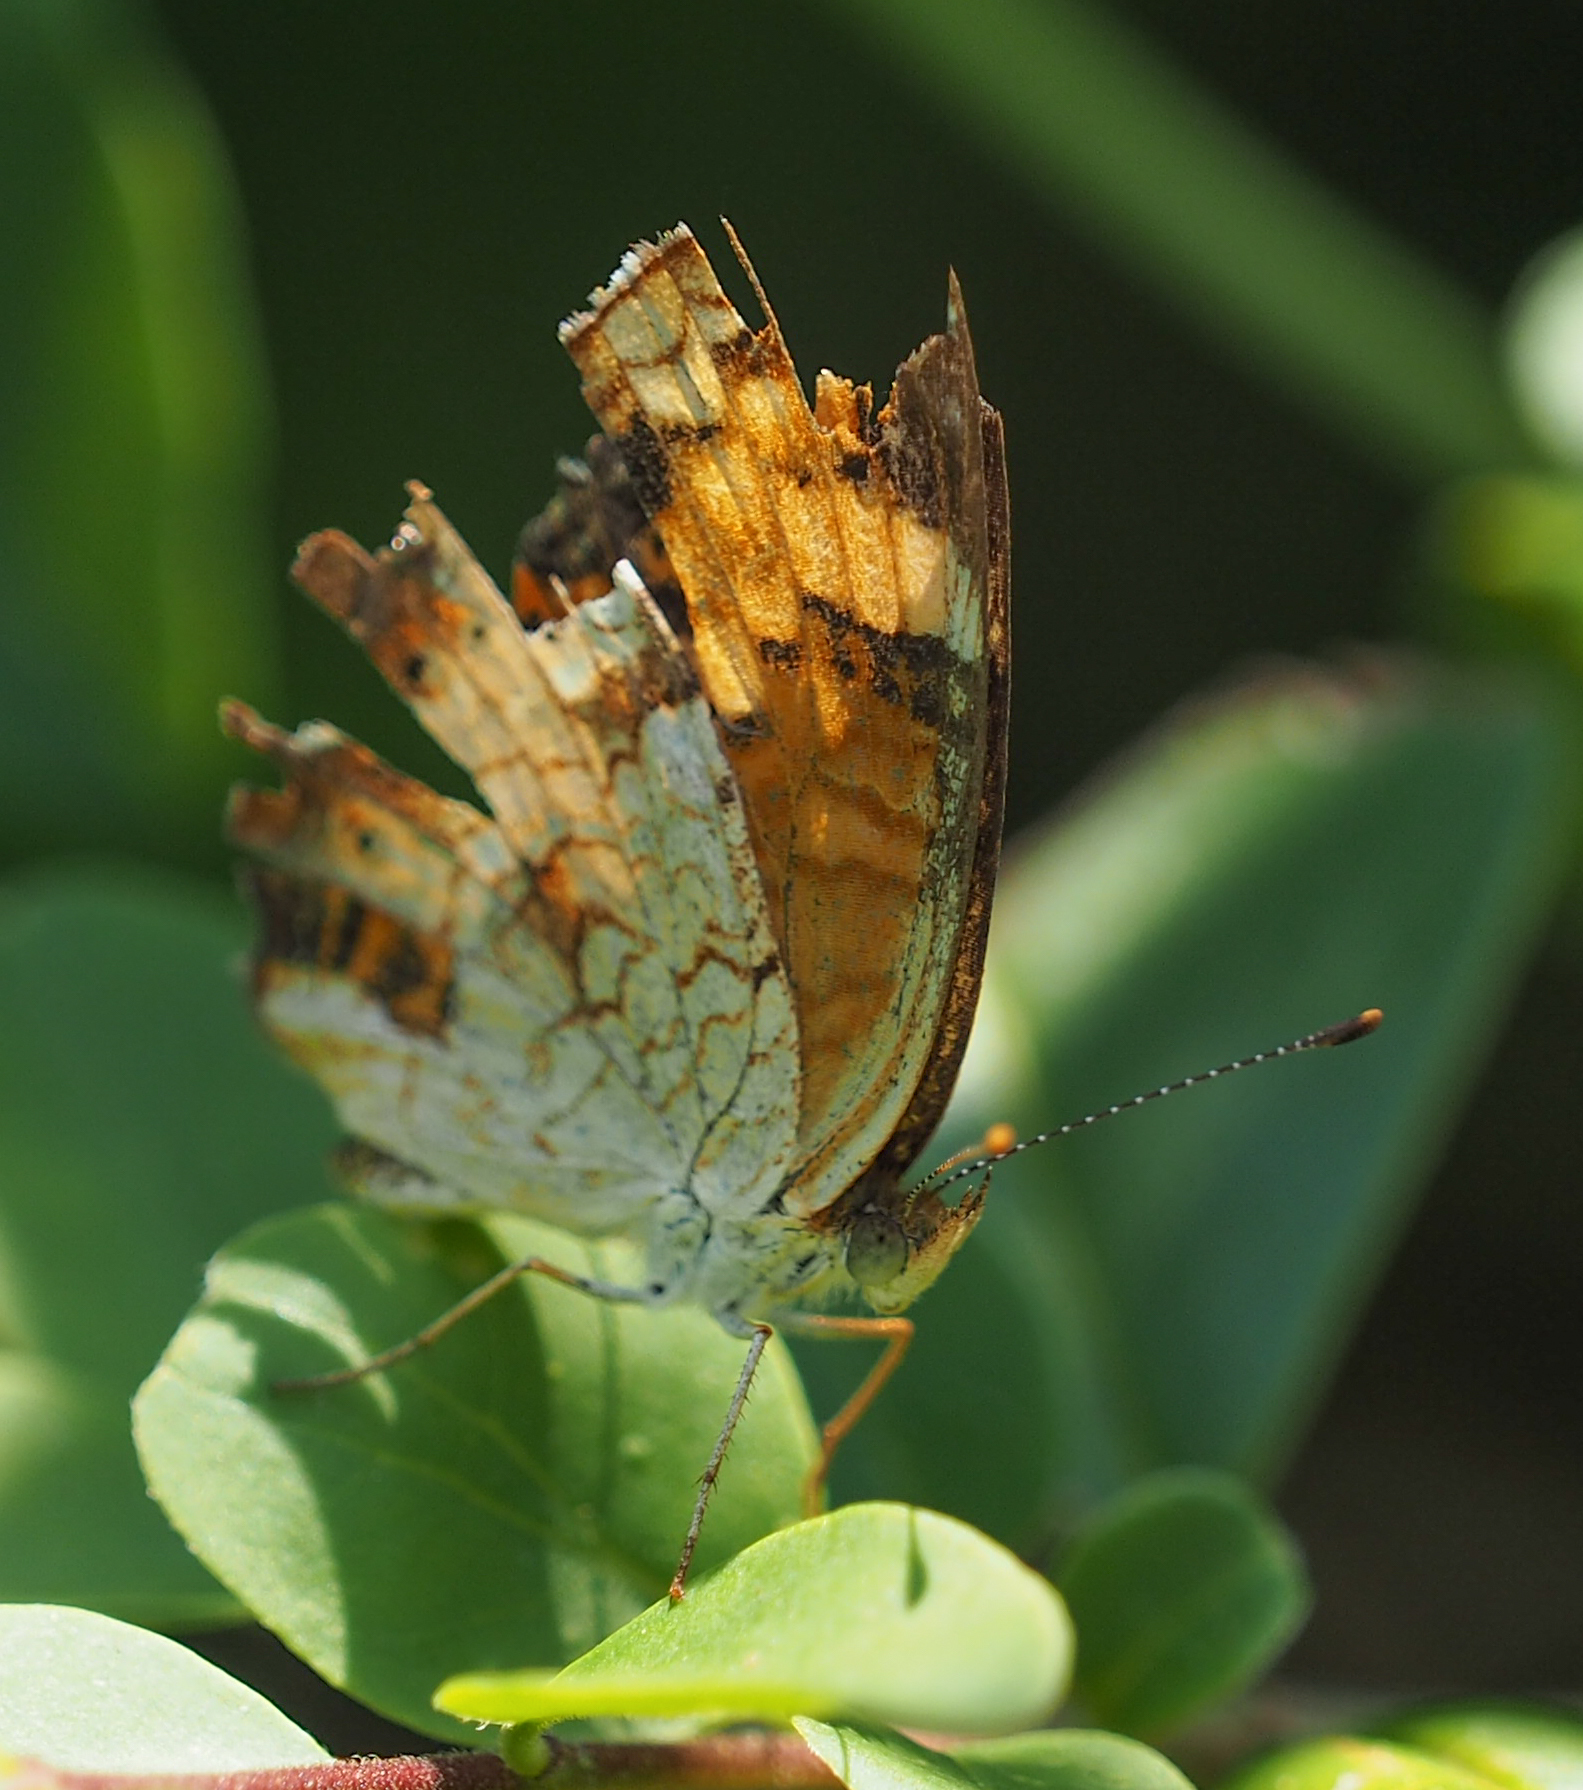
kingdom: Animalia
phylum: Arthropoda
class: Insecta
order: Lepidoptera
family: Nymphalidae
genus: Phyciodes
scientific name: Phyciodes tharos
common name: Pearl crescent
